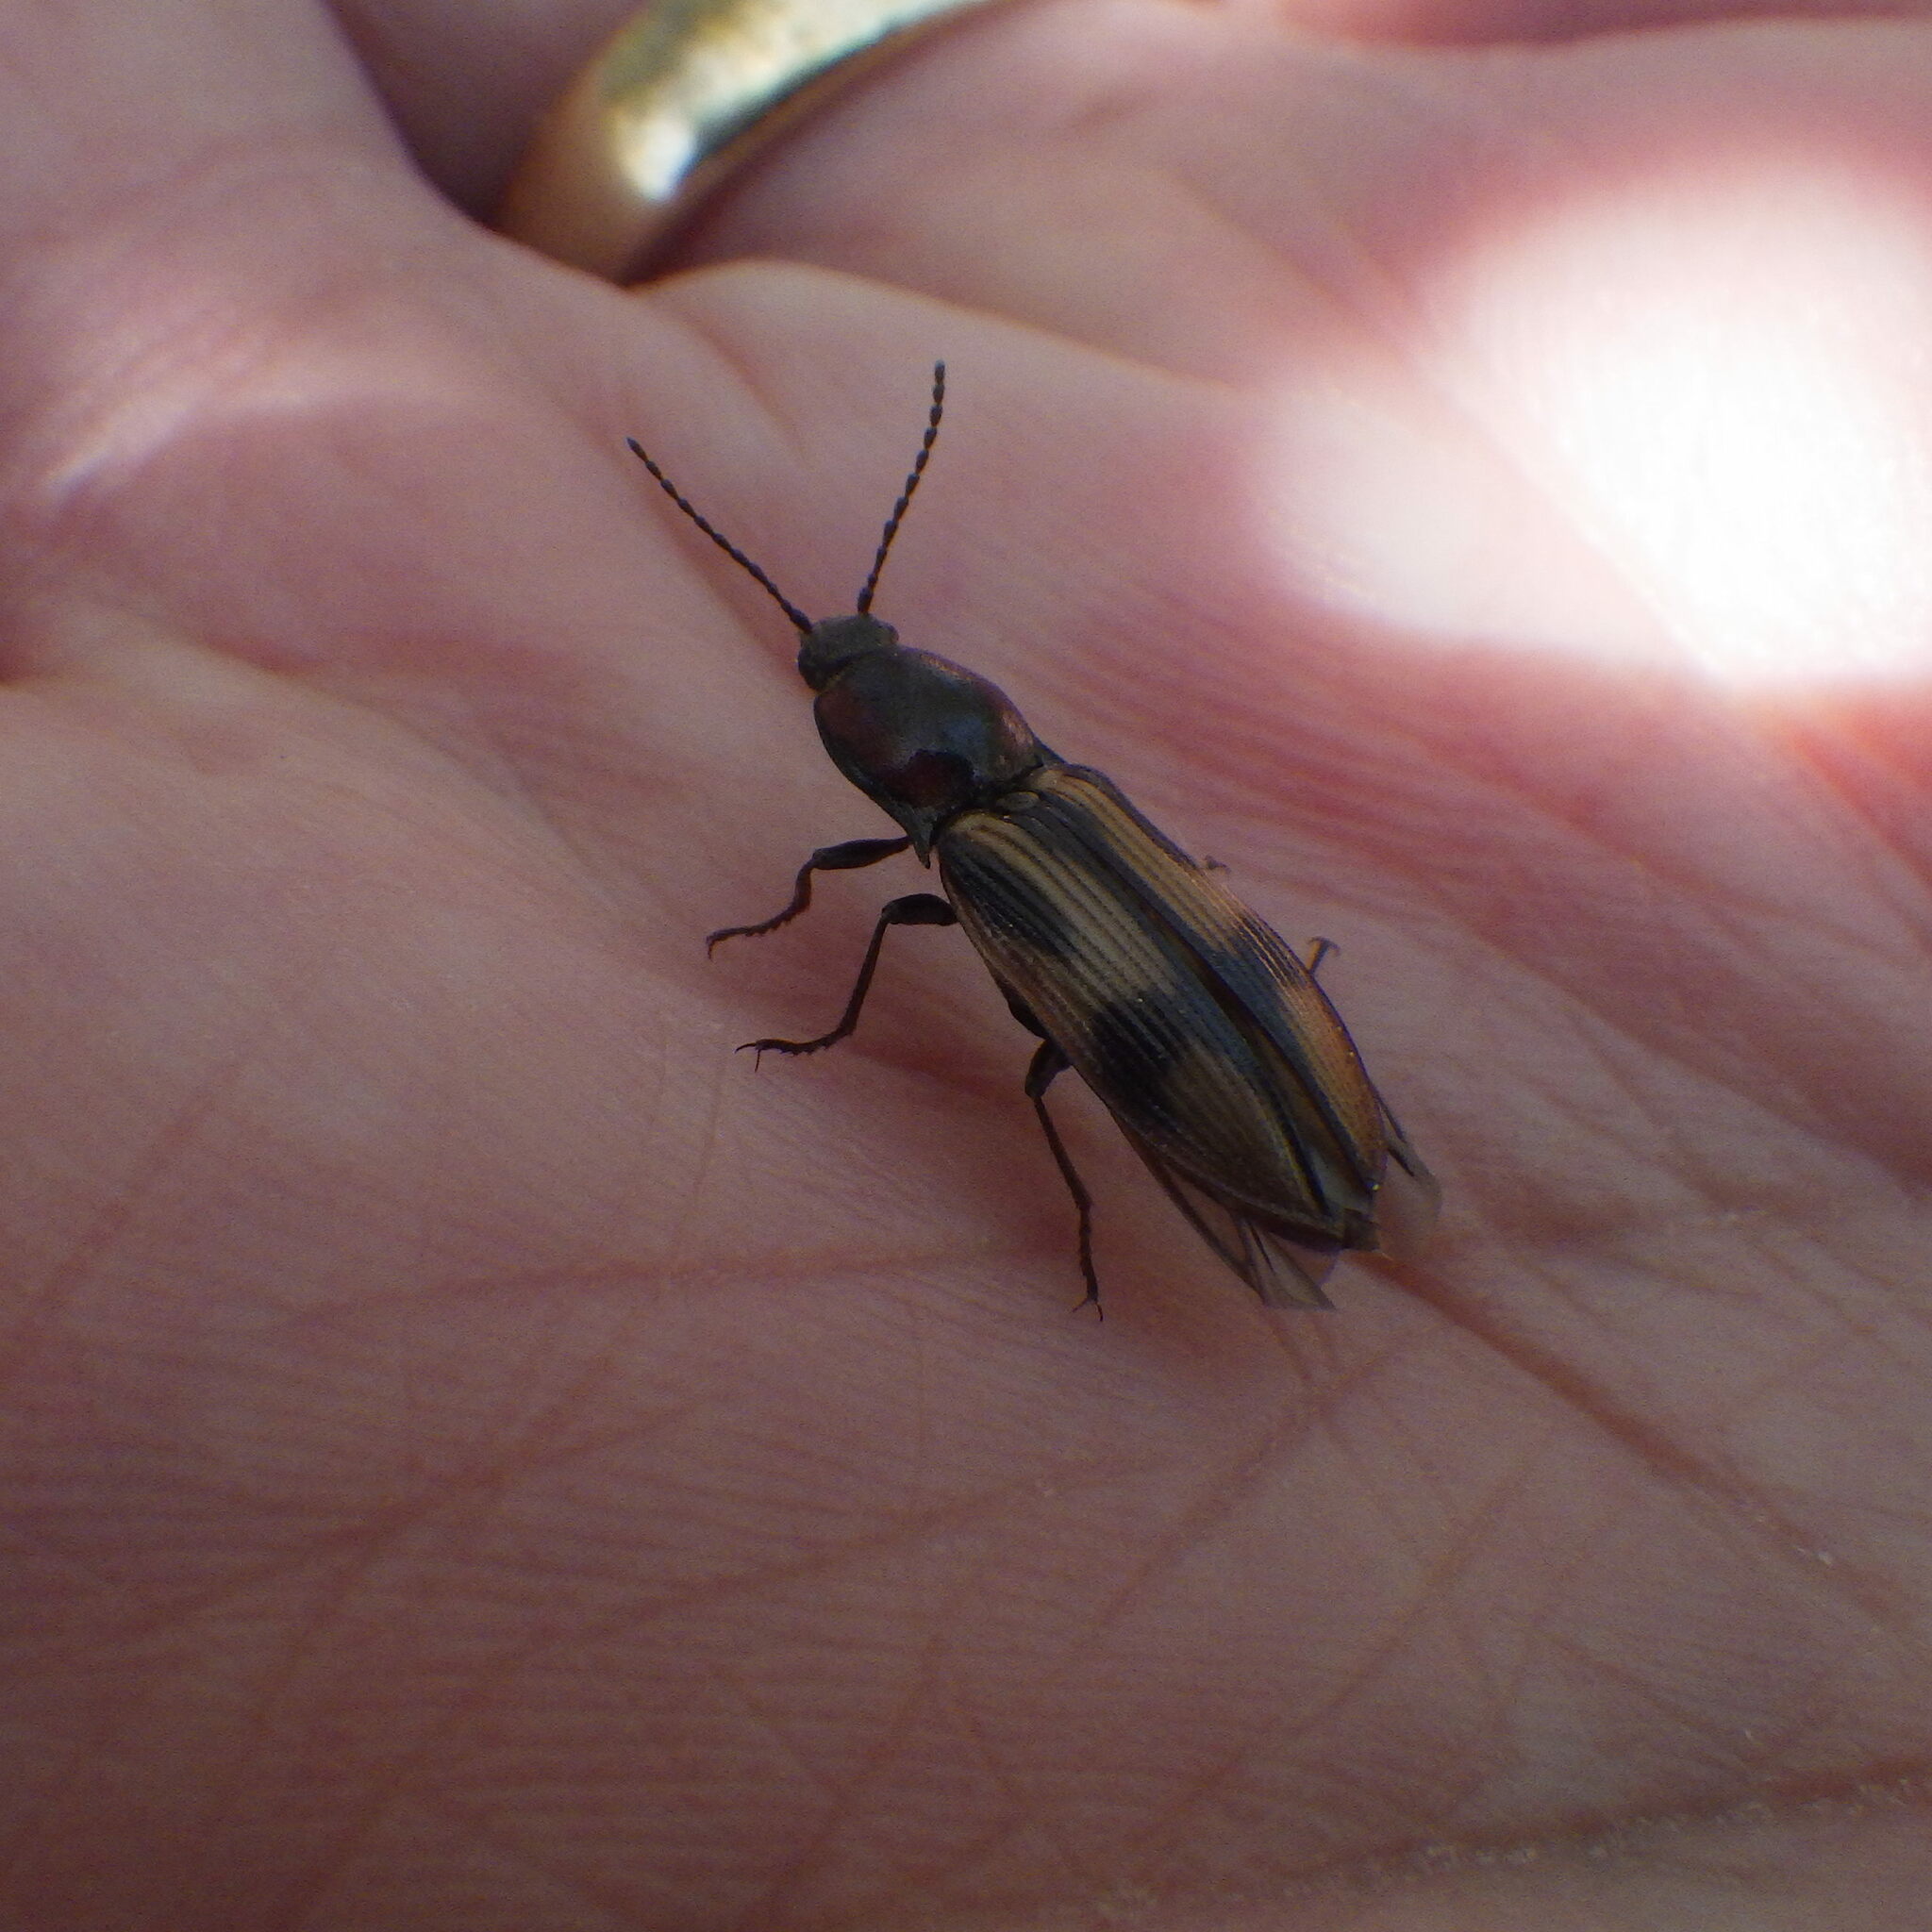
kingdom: Animalia
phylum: Arthropoda
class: Insecta
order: Coleoptera
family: Elateridae
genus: Selatosomus
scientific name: Selatosomus pulcher
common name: Noble click beetle
